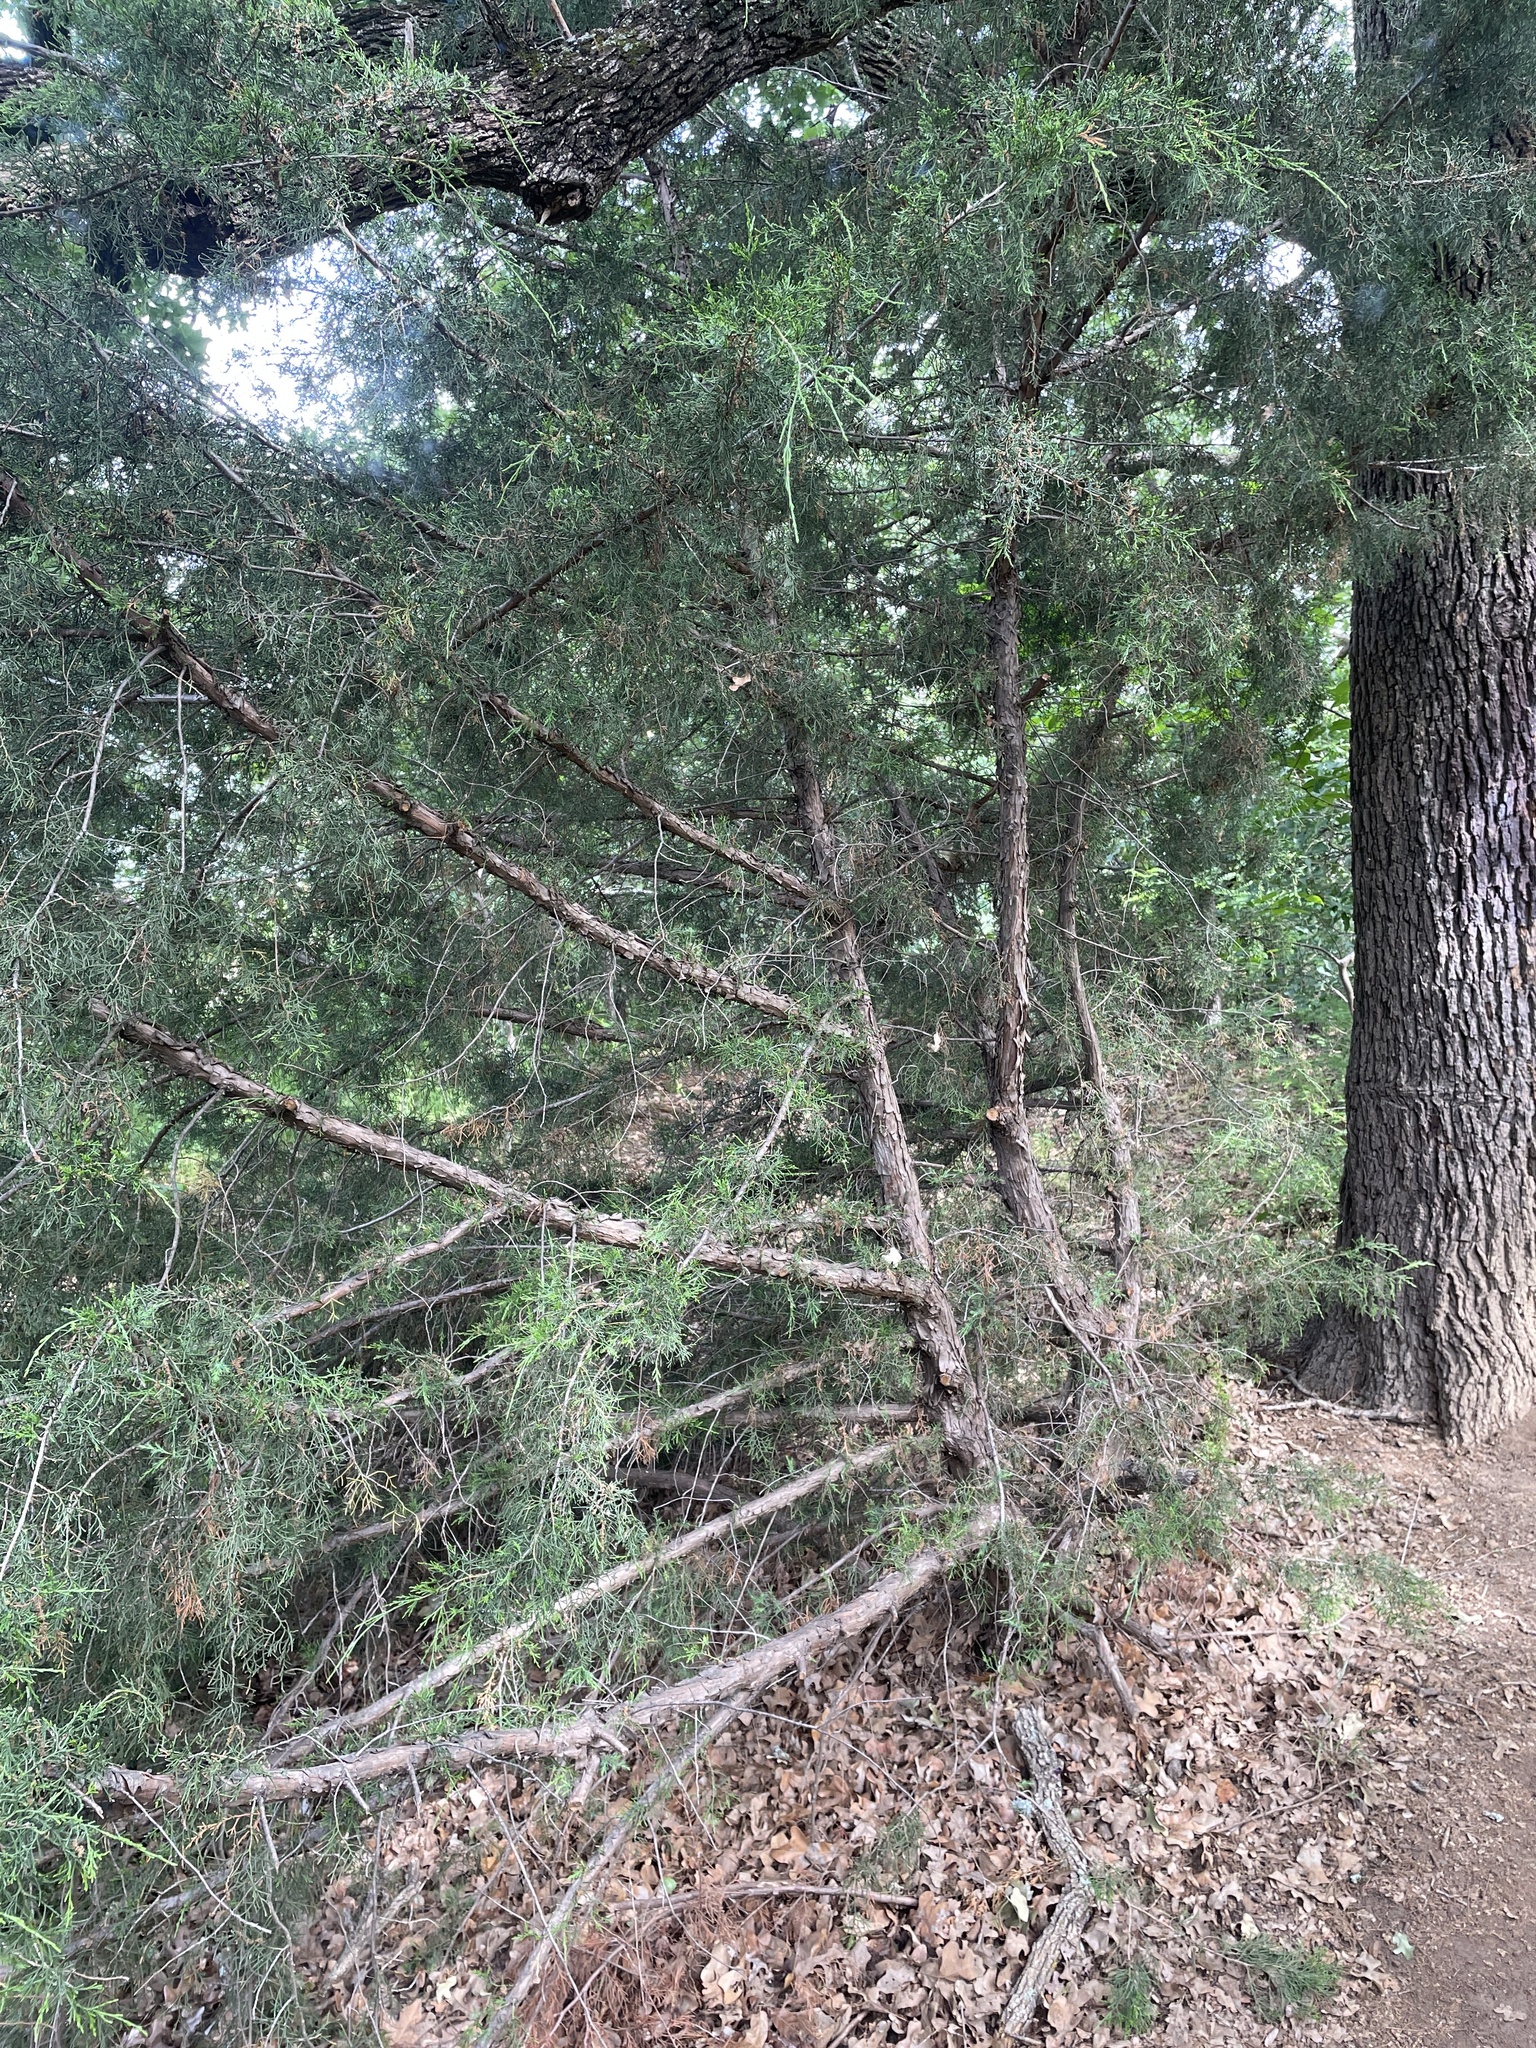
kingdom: Plantae
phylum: Tracheophyta
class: Pinopsida
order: Pinales
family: Cupressaceae
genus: Juniperus
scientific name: Juniperus virginiana
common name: Red juniper
